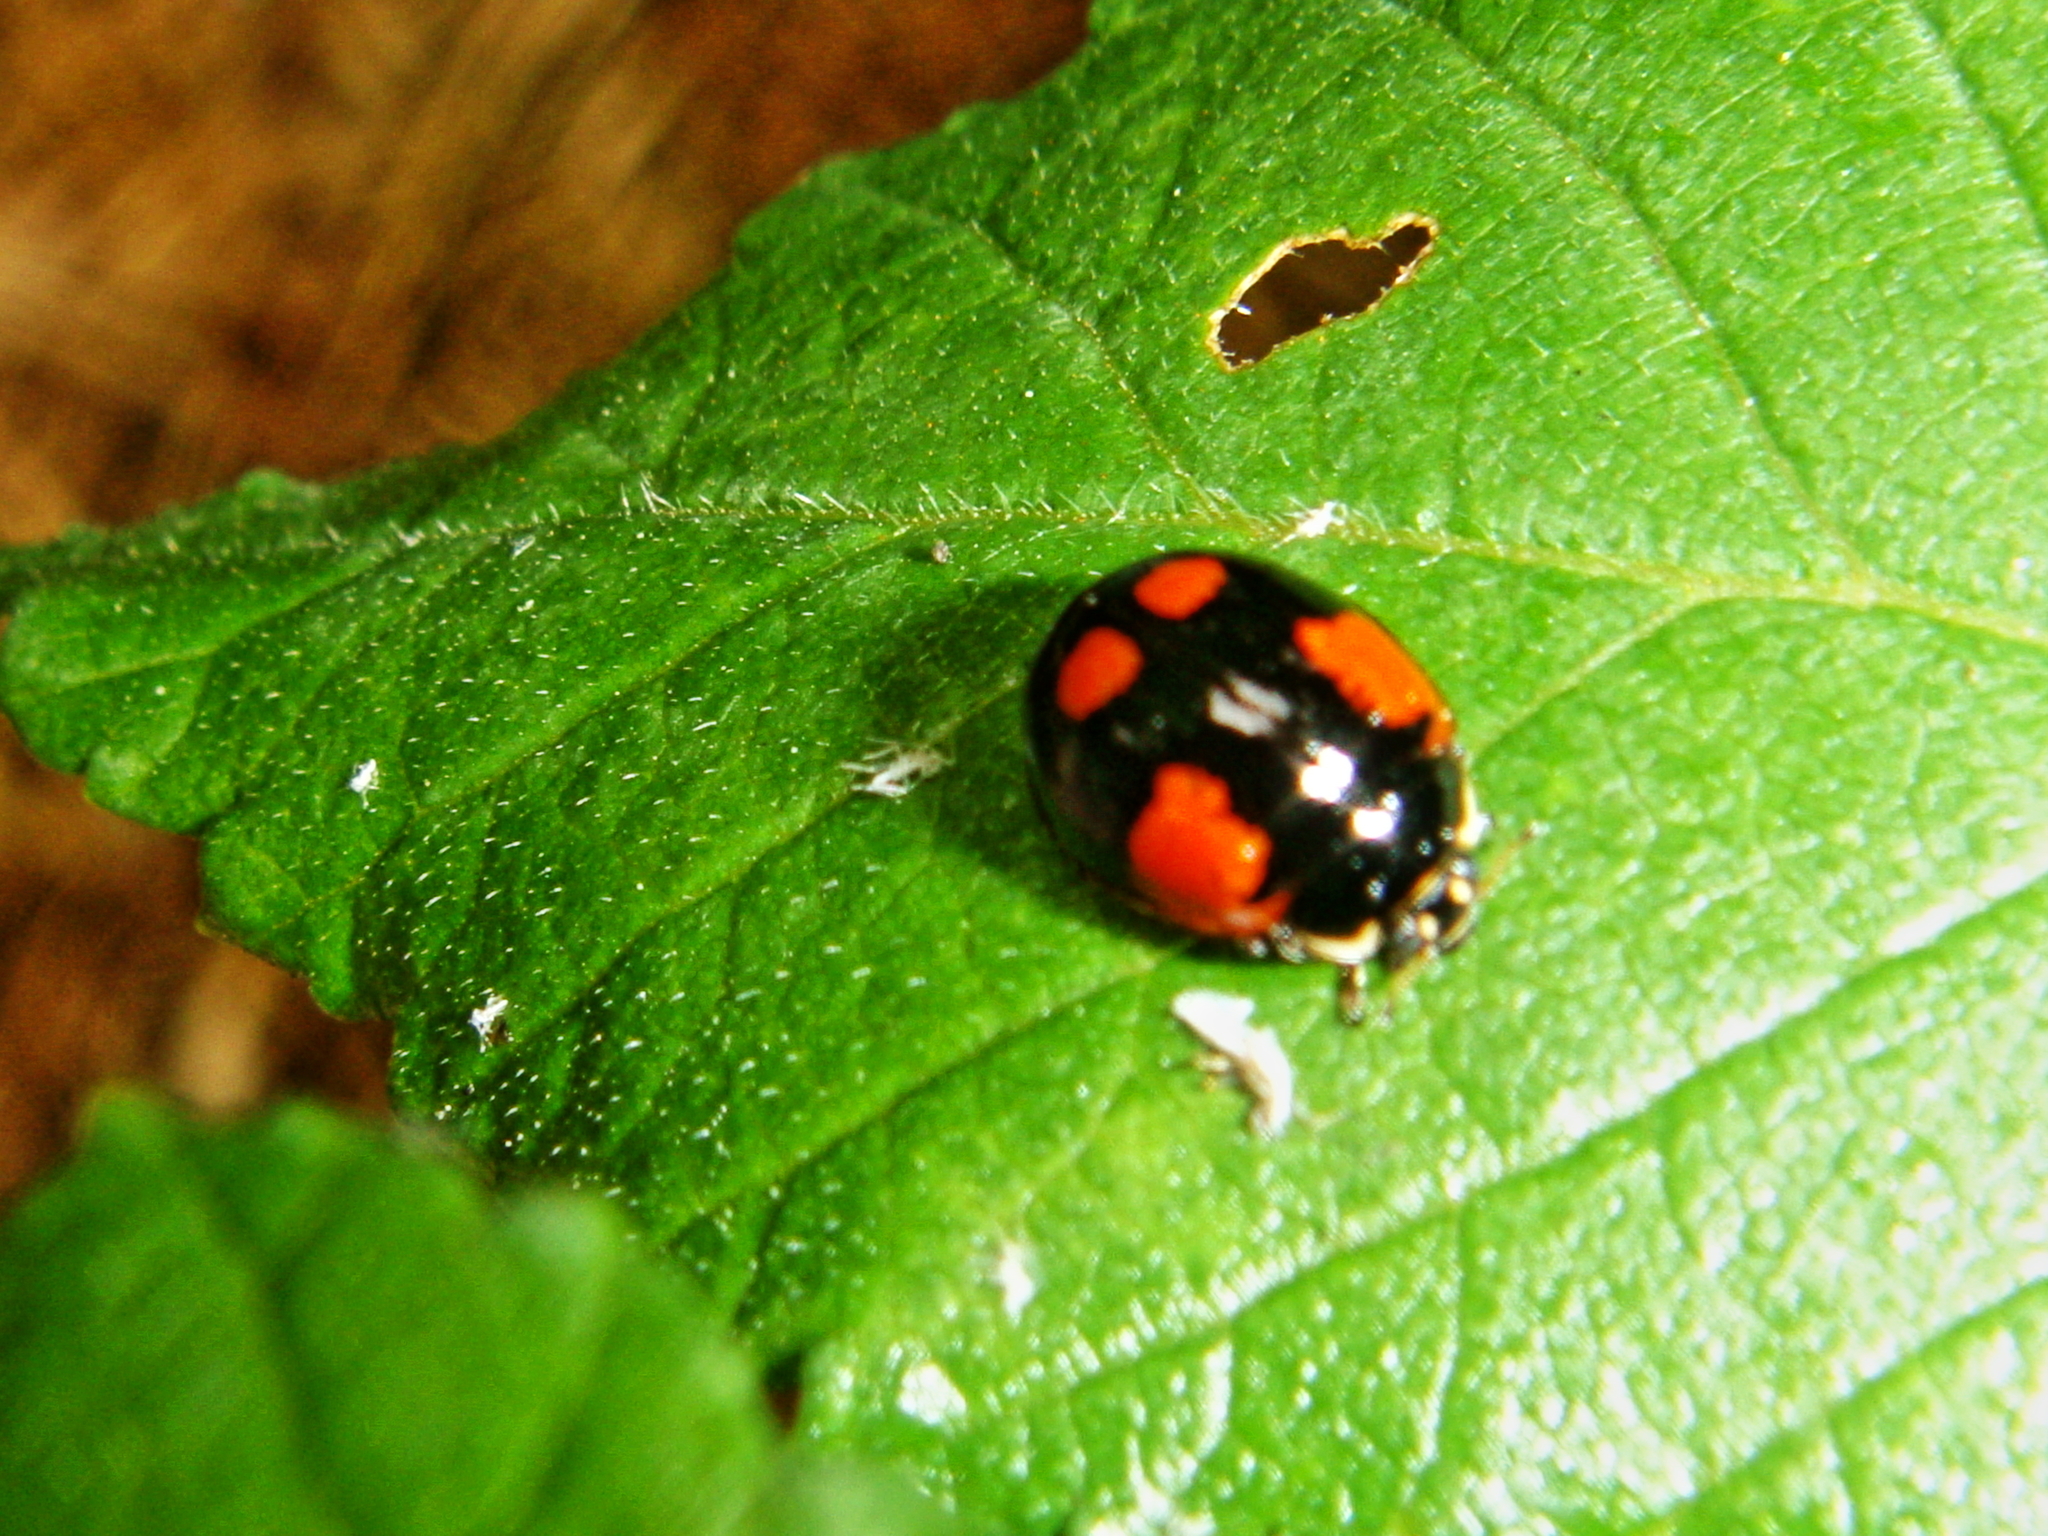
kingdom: Animalia
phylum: Arthropoda
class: Insecta
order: Coleoptera
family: Coccinellidae
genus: Adalia
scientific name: Adalia bipunctata
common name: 2-spot ladybird
